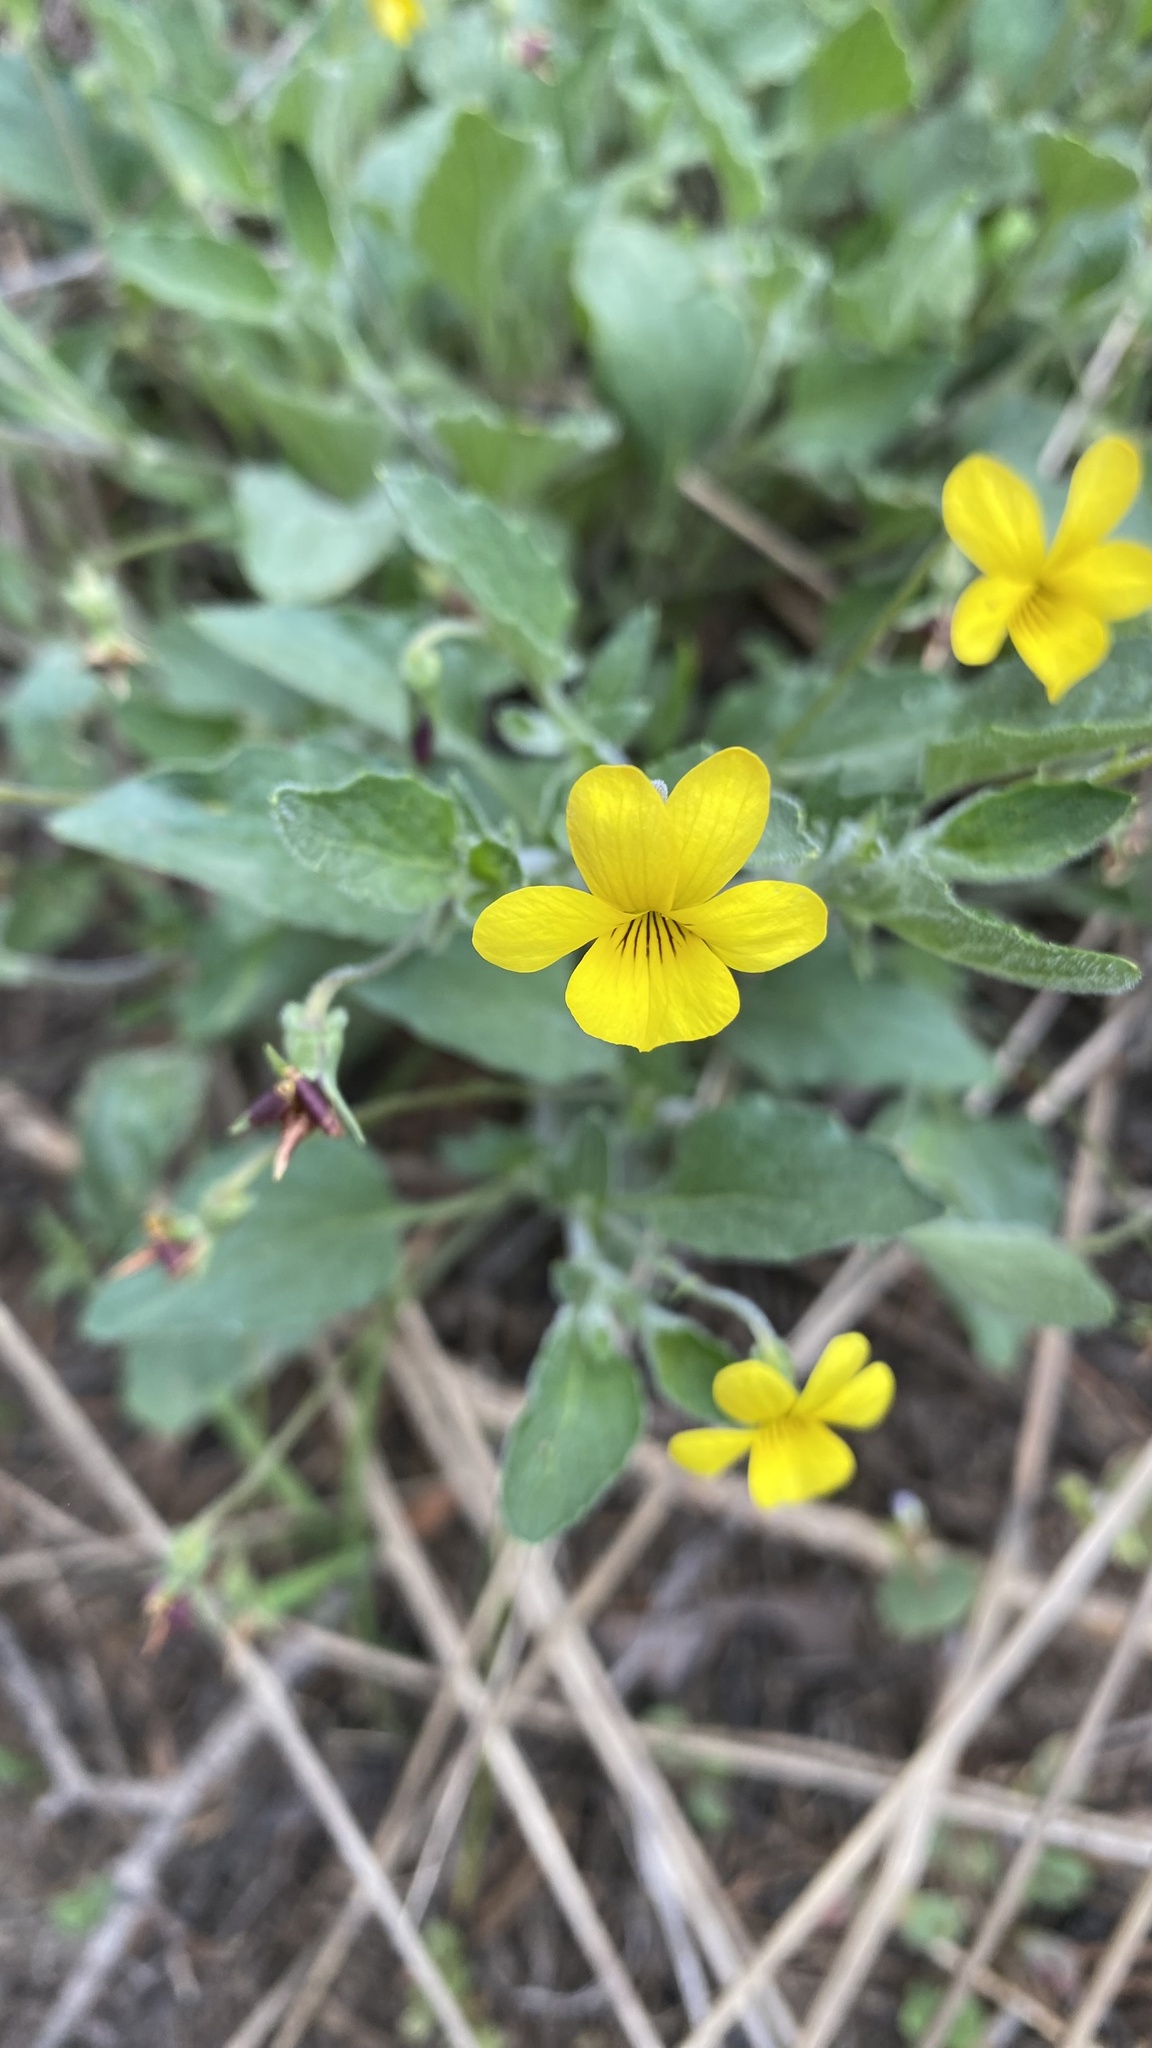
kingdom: Plantae
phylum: Tracheophyta
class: Magnoliopsida
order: Malpighiales
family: Violaceae
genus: Viola
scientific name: Viola purpurea
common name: Pine violet
